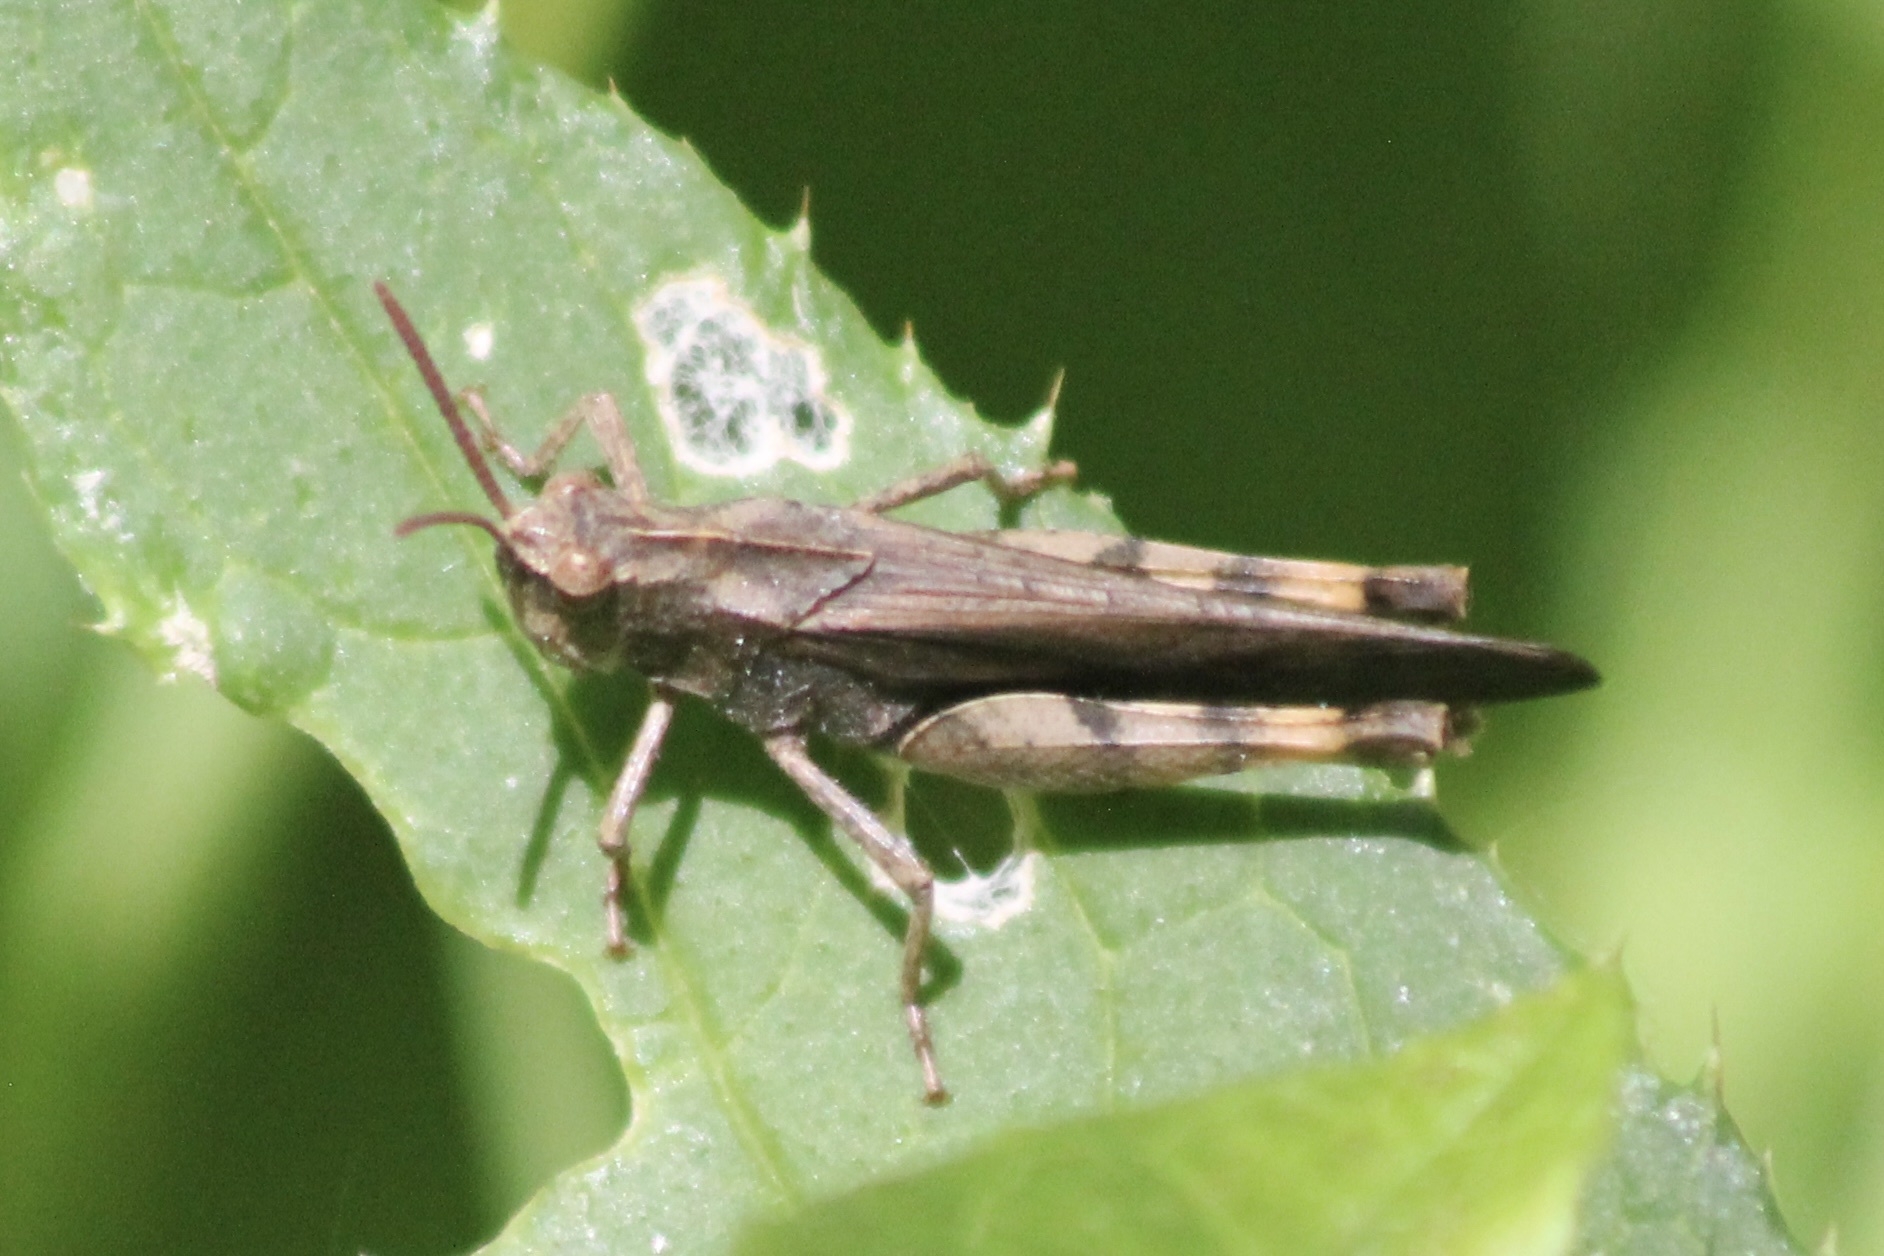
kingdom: Animalia
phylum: Arthropoda
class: Insecta
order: Orthoptera
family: Acrididae
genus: Chortophaga
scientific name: Chortophaga viridifasciata
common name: Green-striped grasshopper
